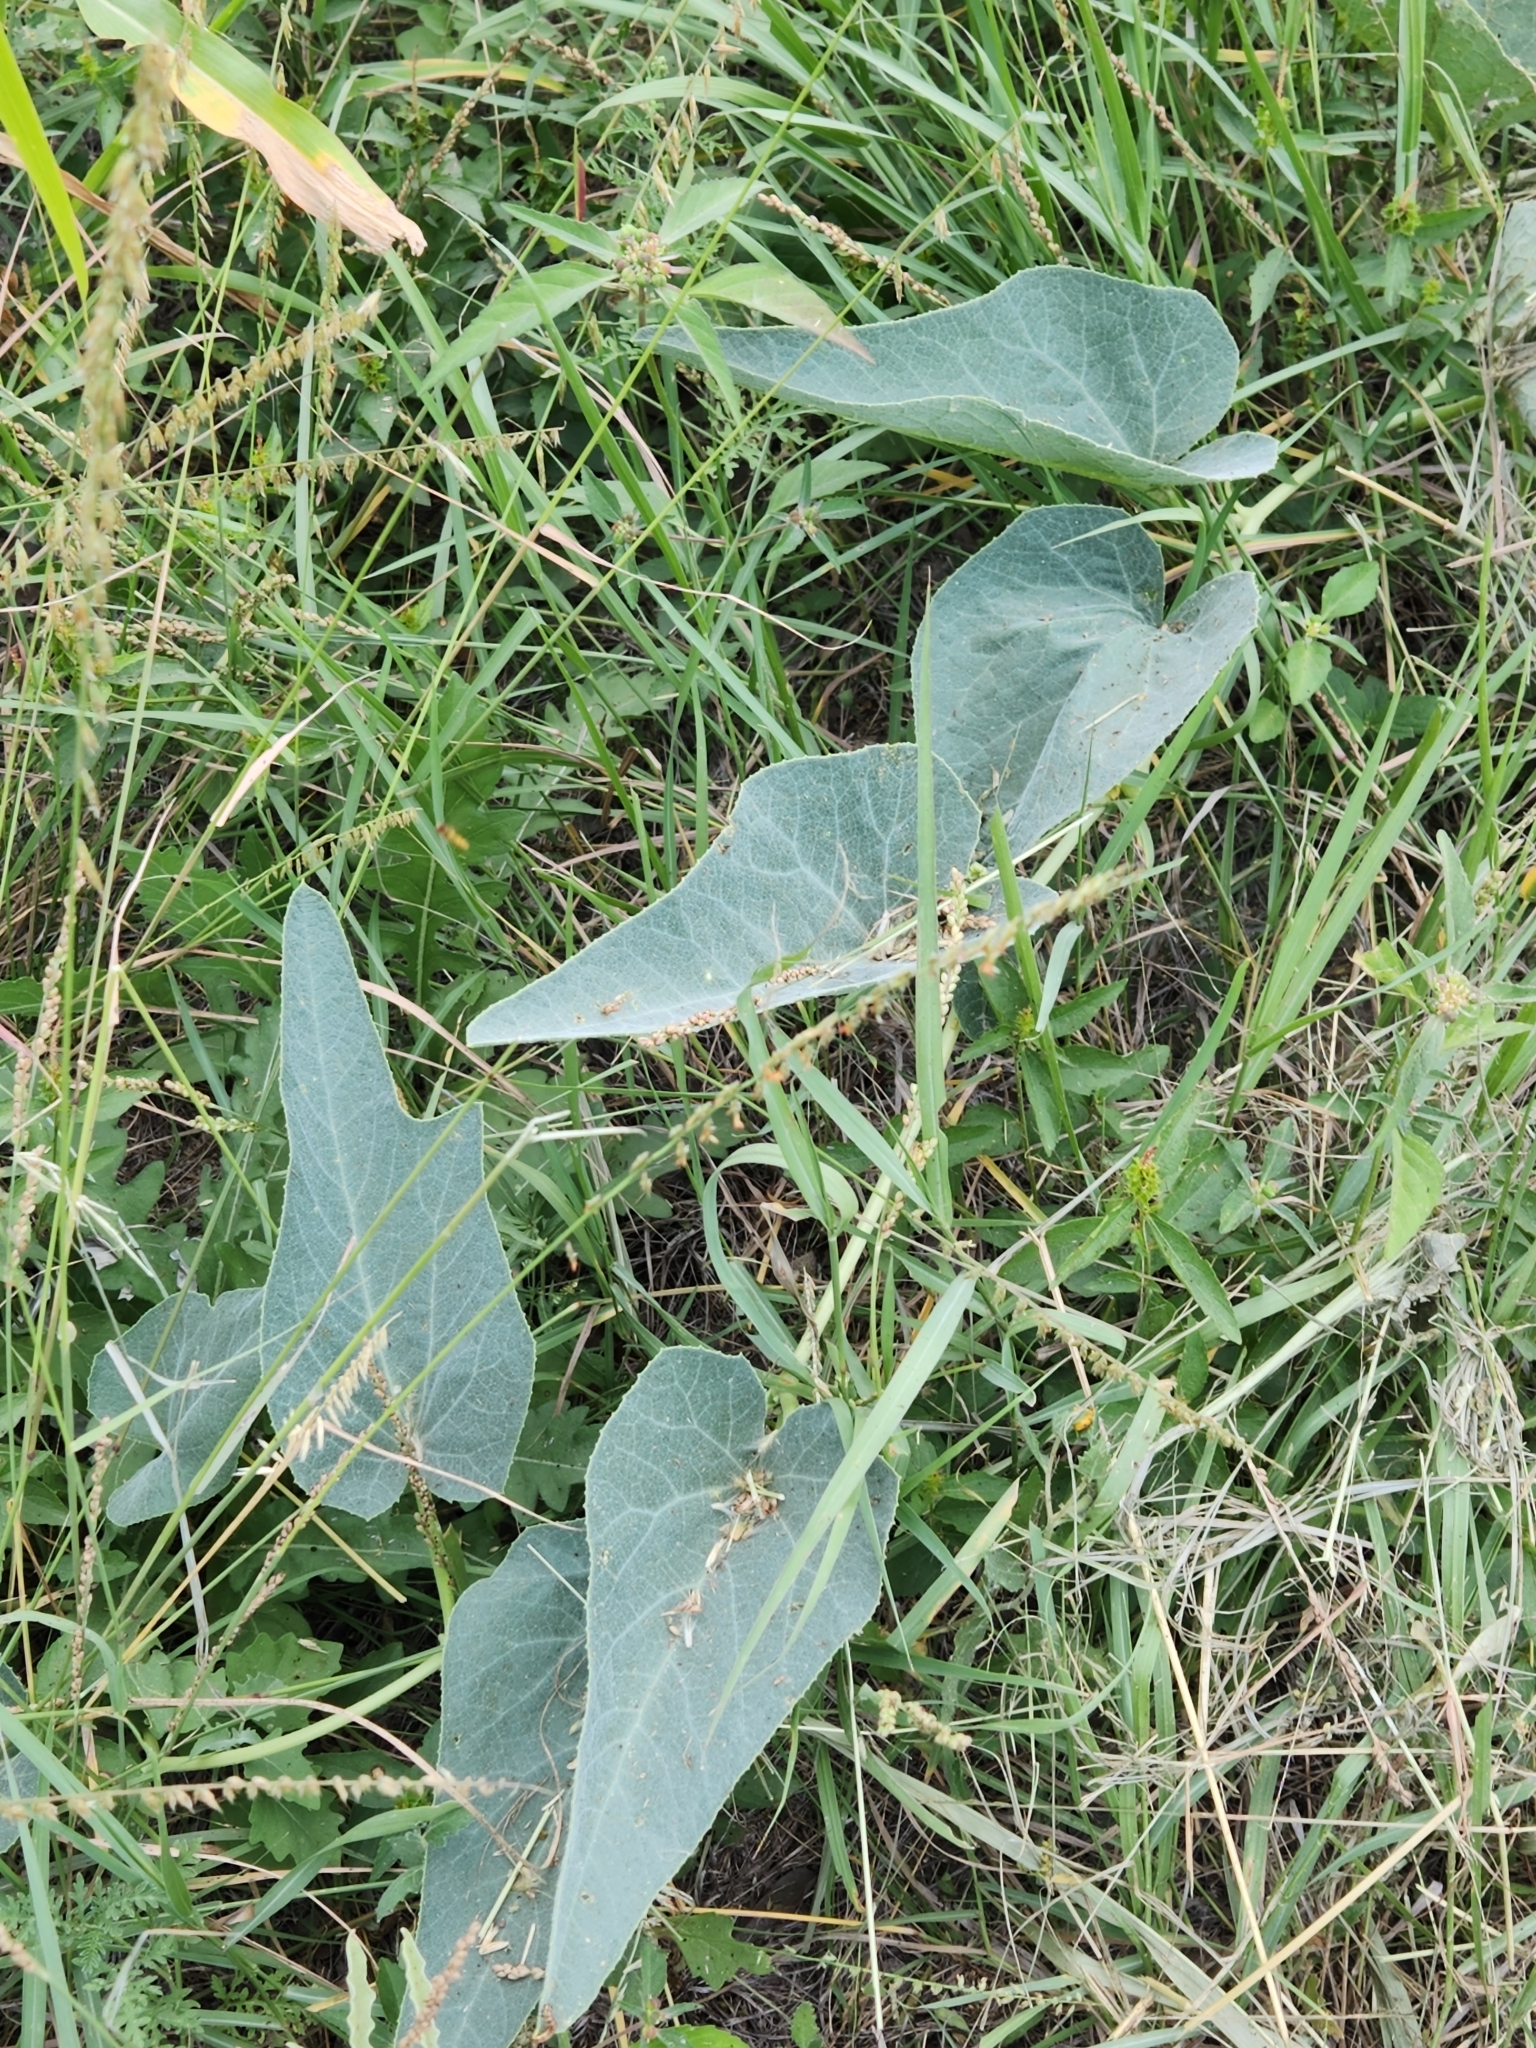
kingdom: Plantae
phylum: Tracheophyta
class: Magnoliopsida
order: Cucurbitales
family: Cucurbitaceae
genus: Cucurbita
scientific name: Cucurbita foetidissima
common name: Buffalo gourd
